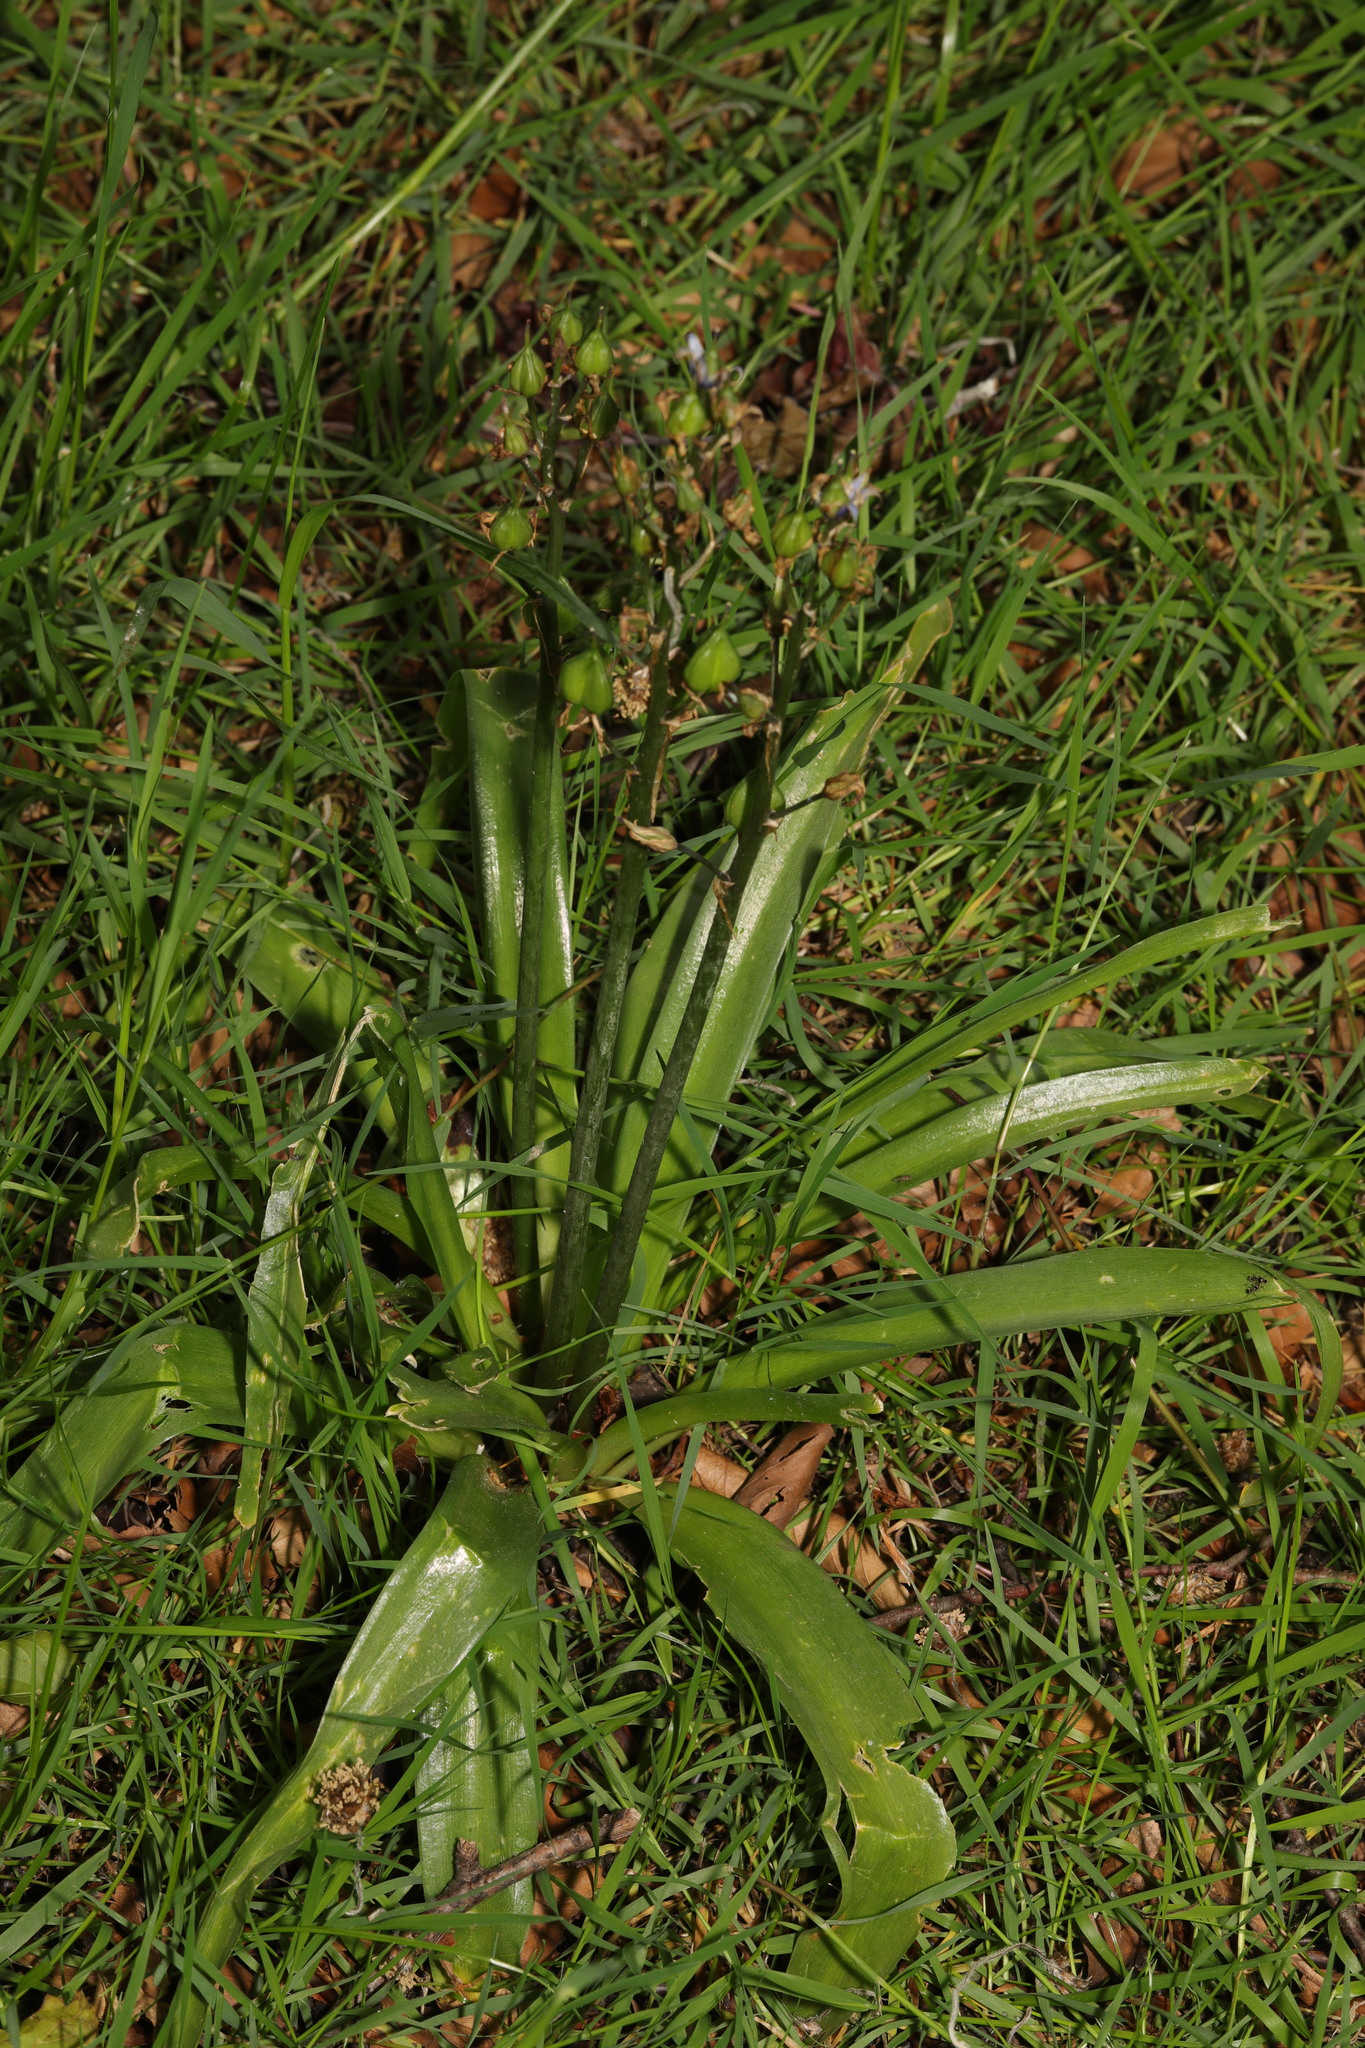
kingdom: Plantae
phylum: Tracheophyta
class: Liliopsida
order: Asparagales
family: Asparagaceae
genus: Hyacinthoides
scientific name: Hyacinthoides hispanica
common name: Spanish bluebell
